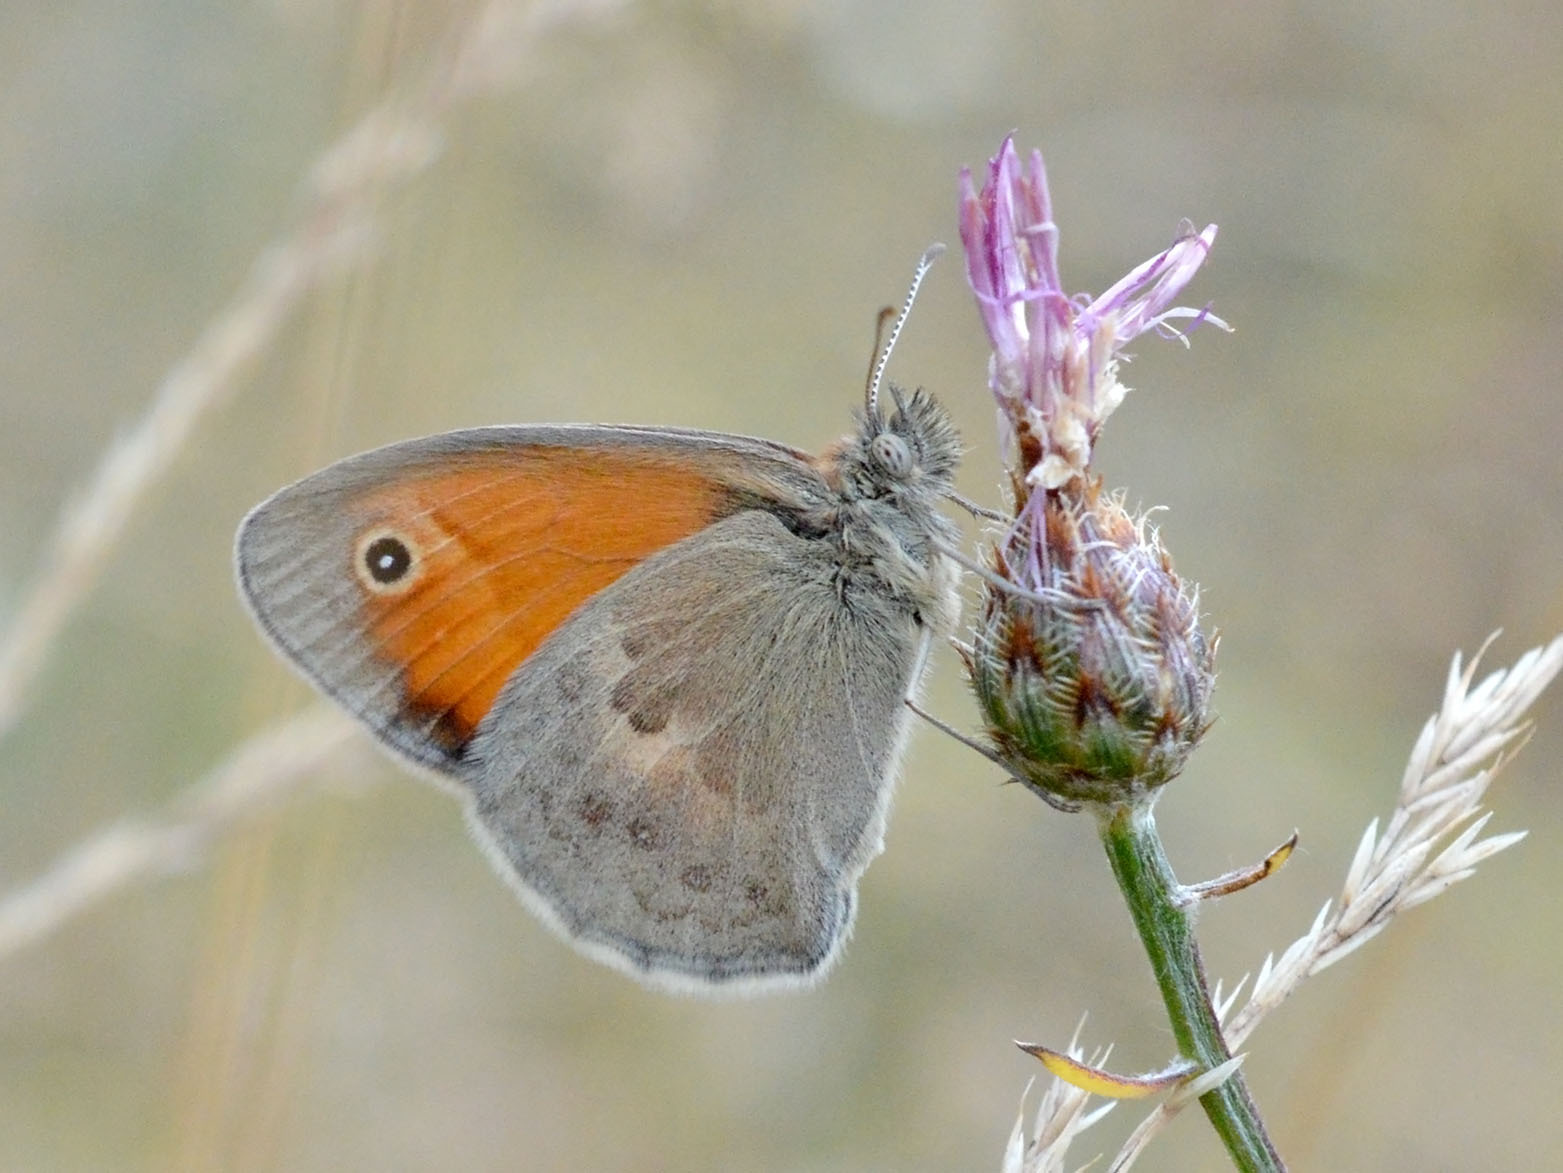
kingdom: Animalia
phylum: Arthropoda
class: Insecta
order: Lepidoptera
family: Nymphalidae
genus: Coenonympha
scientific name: Coenonympha pamphilus
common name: Small heath
